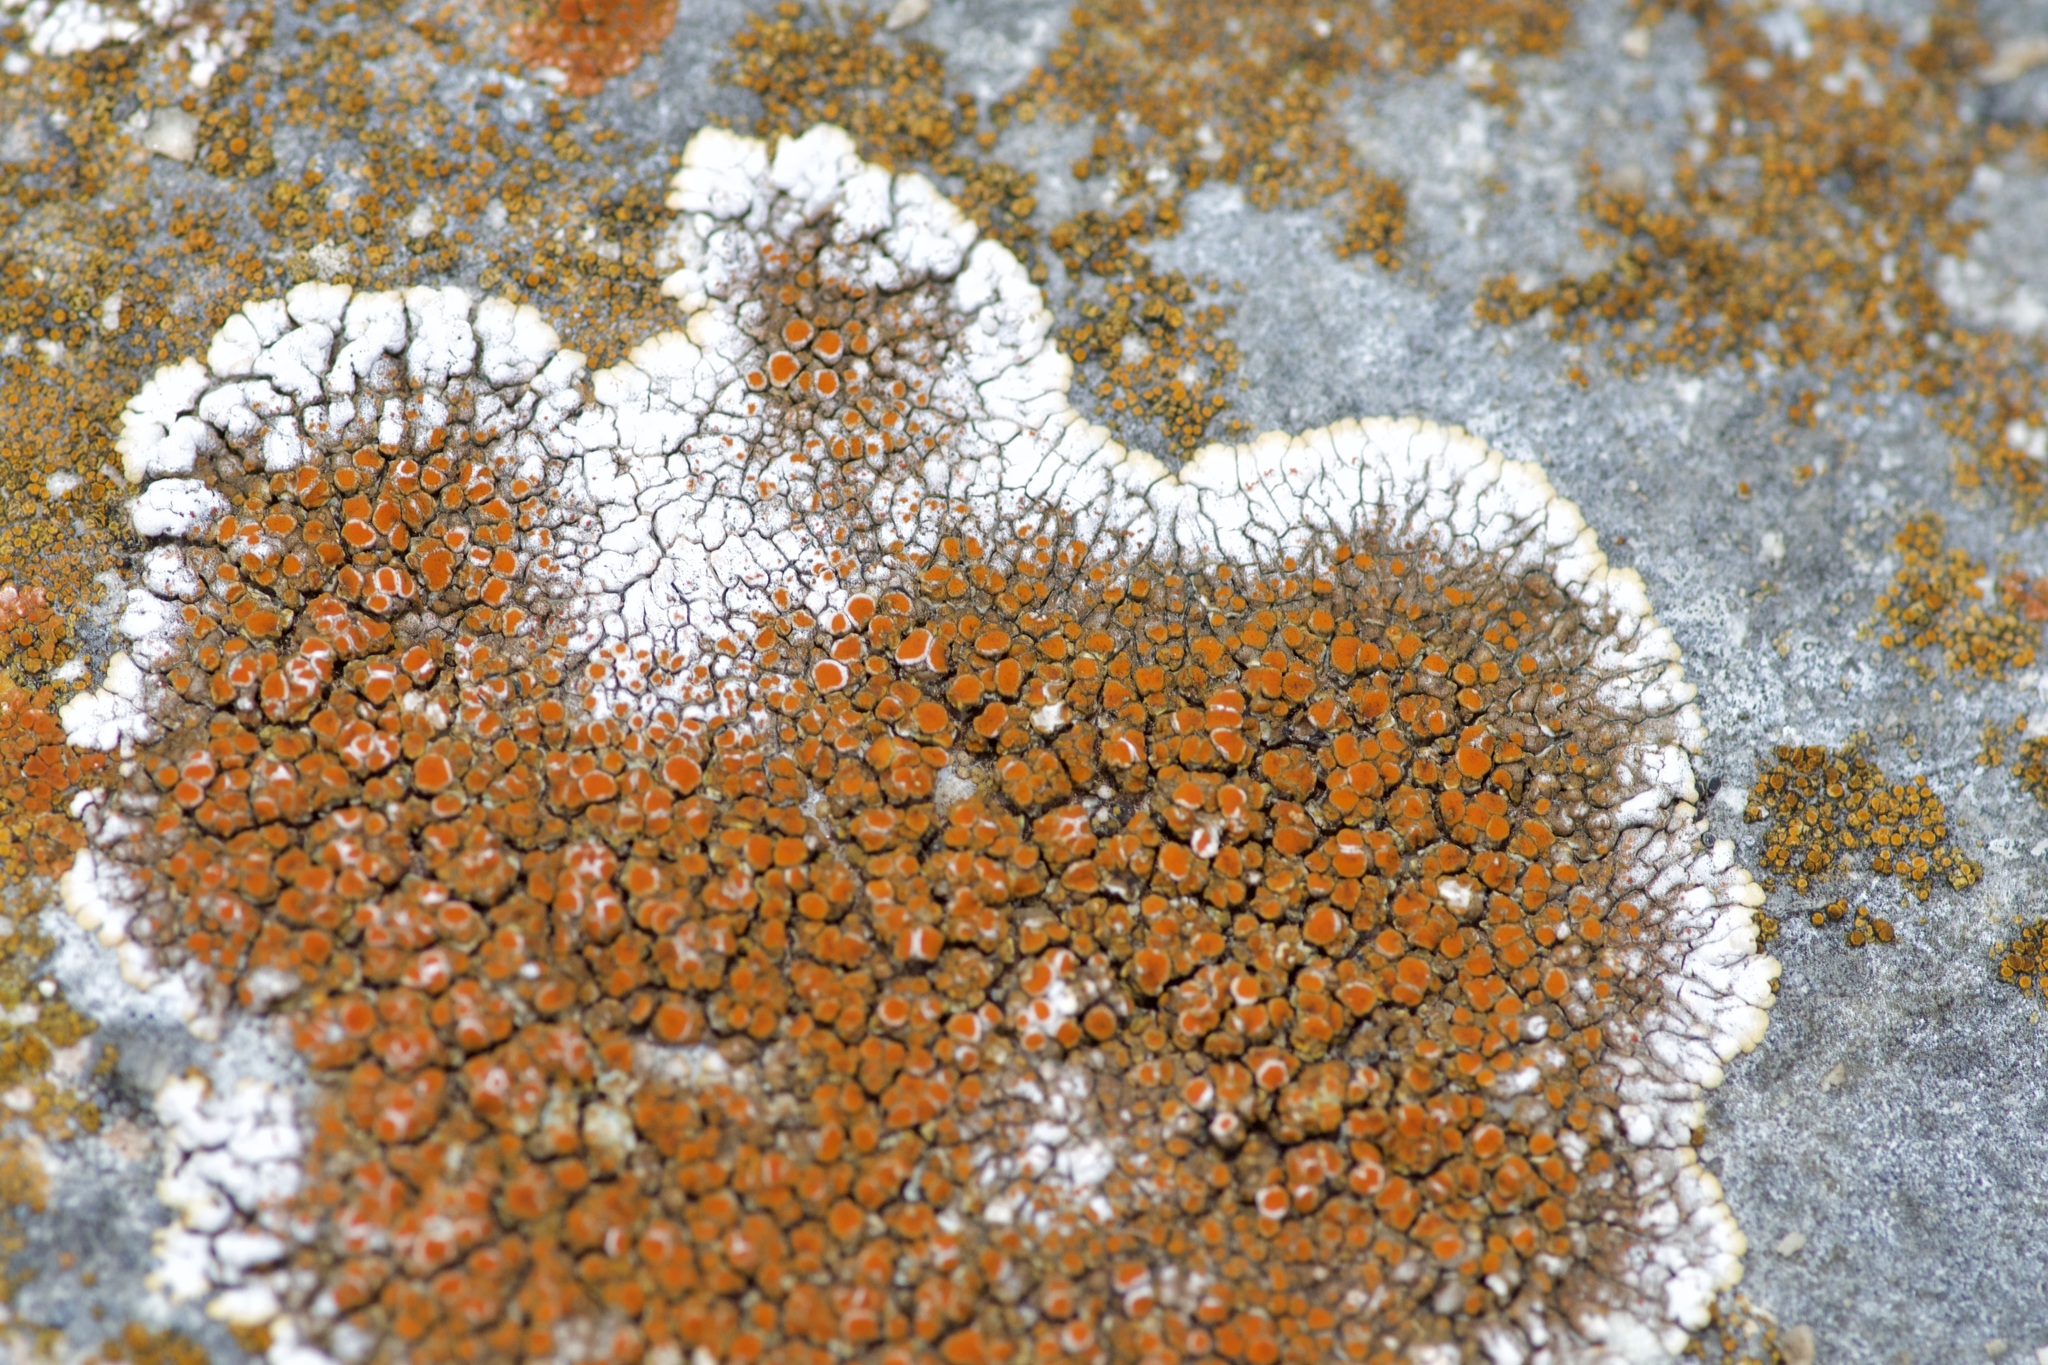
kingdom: Fungi
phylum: Ascomycota
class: Lecanoromycetes
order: Teloschistales
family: Teloschistaceae
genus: Squamulea
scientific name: Squamulea galactophylla
